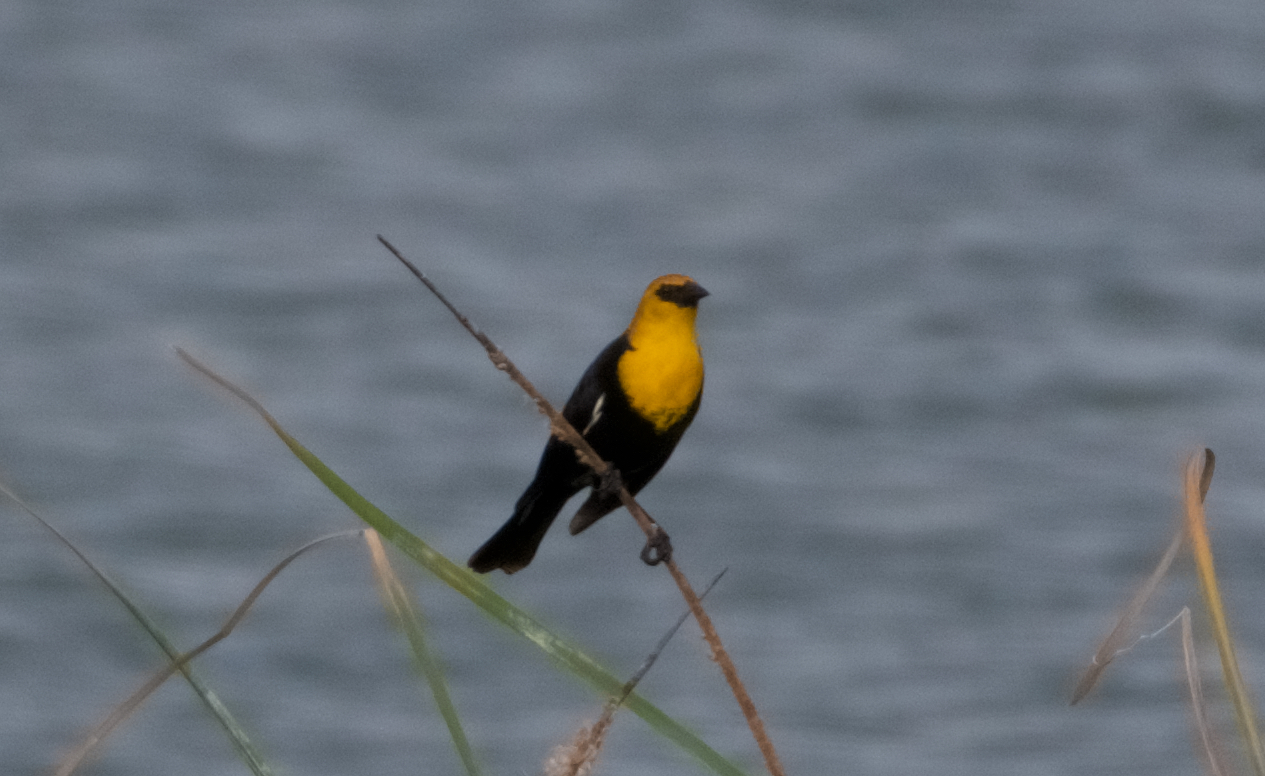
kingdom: Animalia
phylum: Chordata
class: Aves
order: Passeriformes
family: Icteridae
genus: Xanthocephalus
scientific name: Xanthocephalus xanthocephalus
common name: Yellow-headed blackbird
